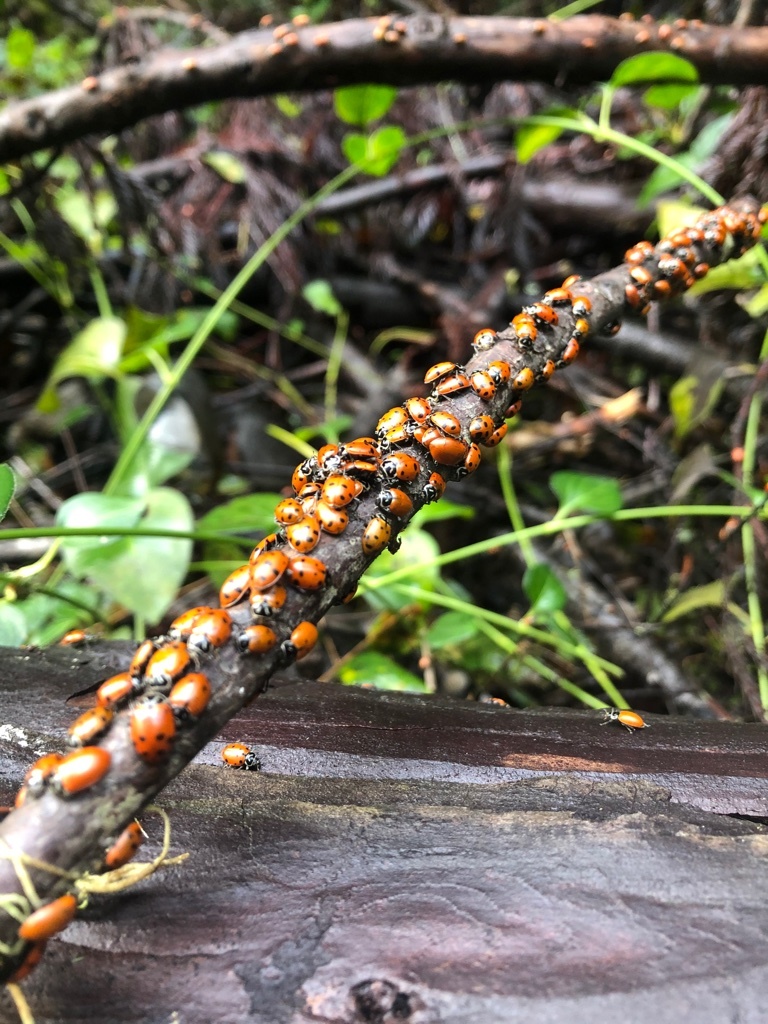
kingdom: Animalia
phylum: Arthropoda
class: Insecta
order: Coleoptera
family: Coccinellidae
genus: Hippodamia
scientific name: Hippodamia convergens
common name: Convergent lady beetle
